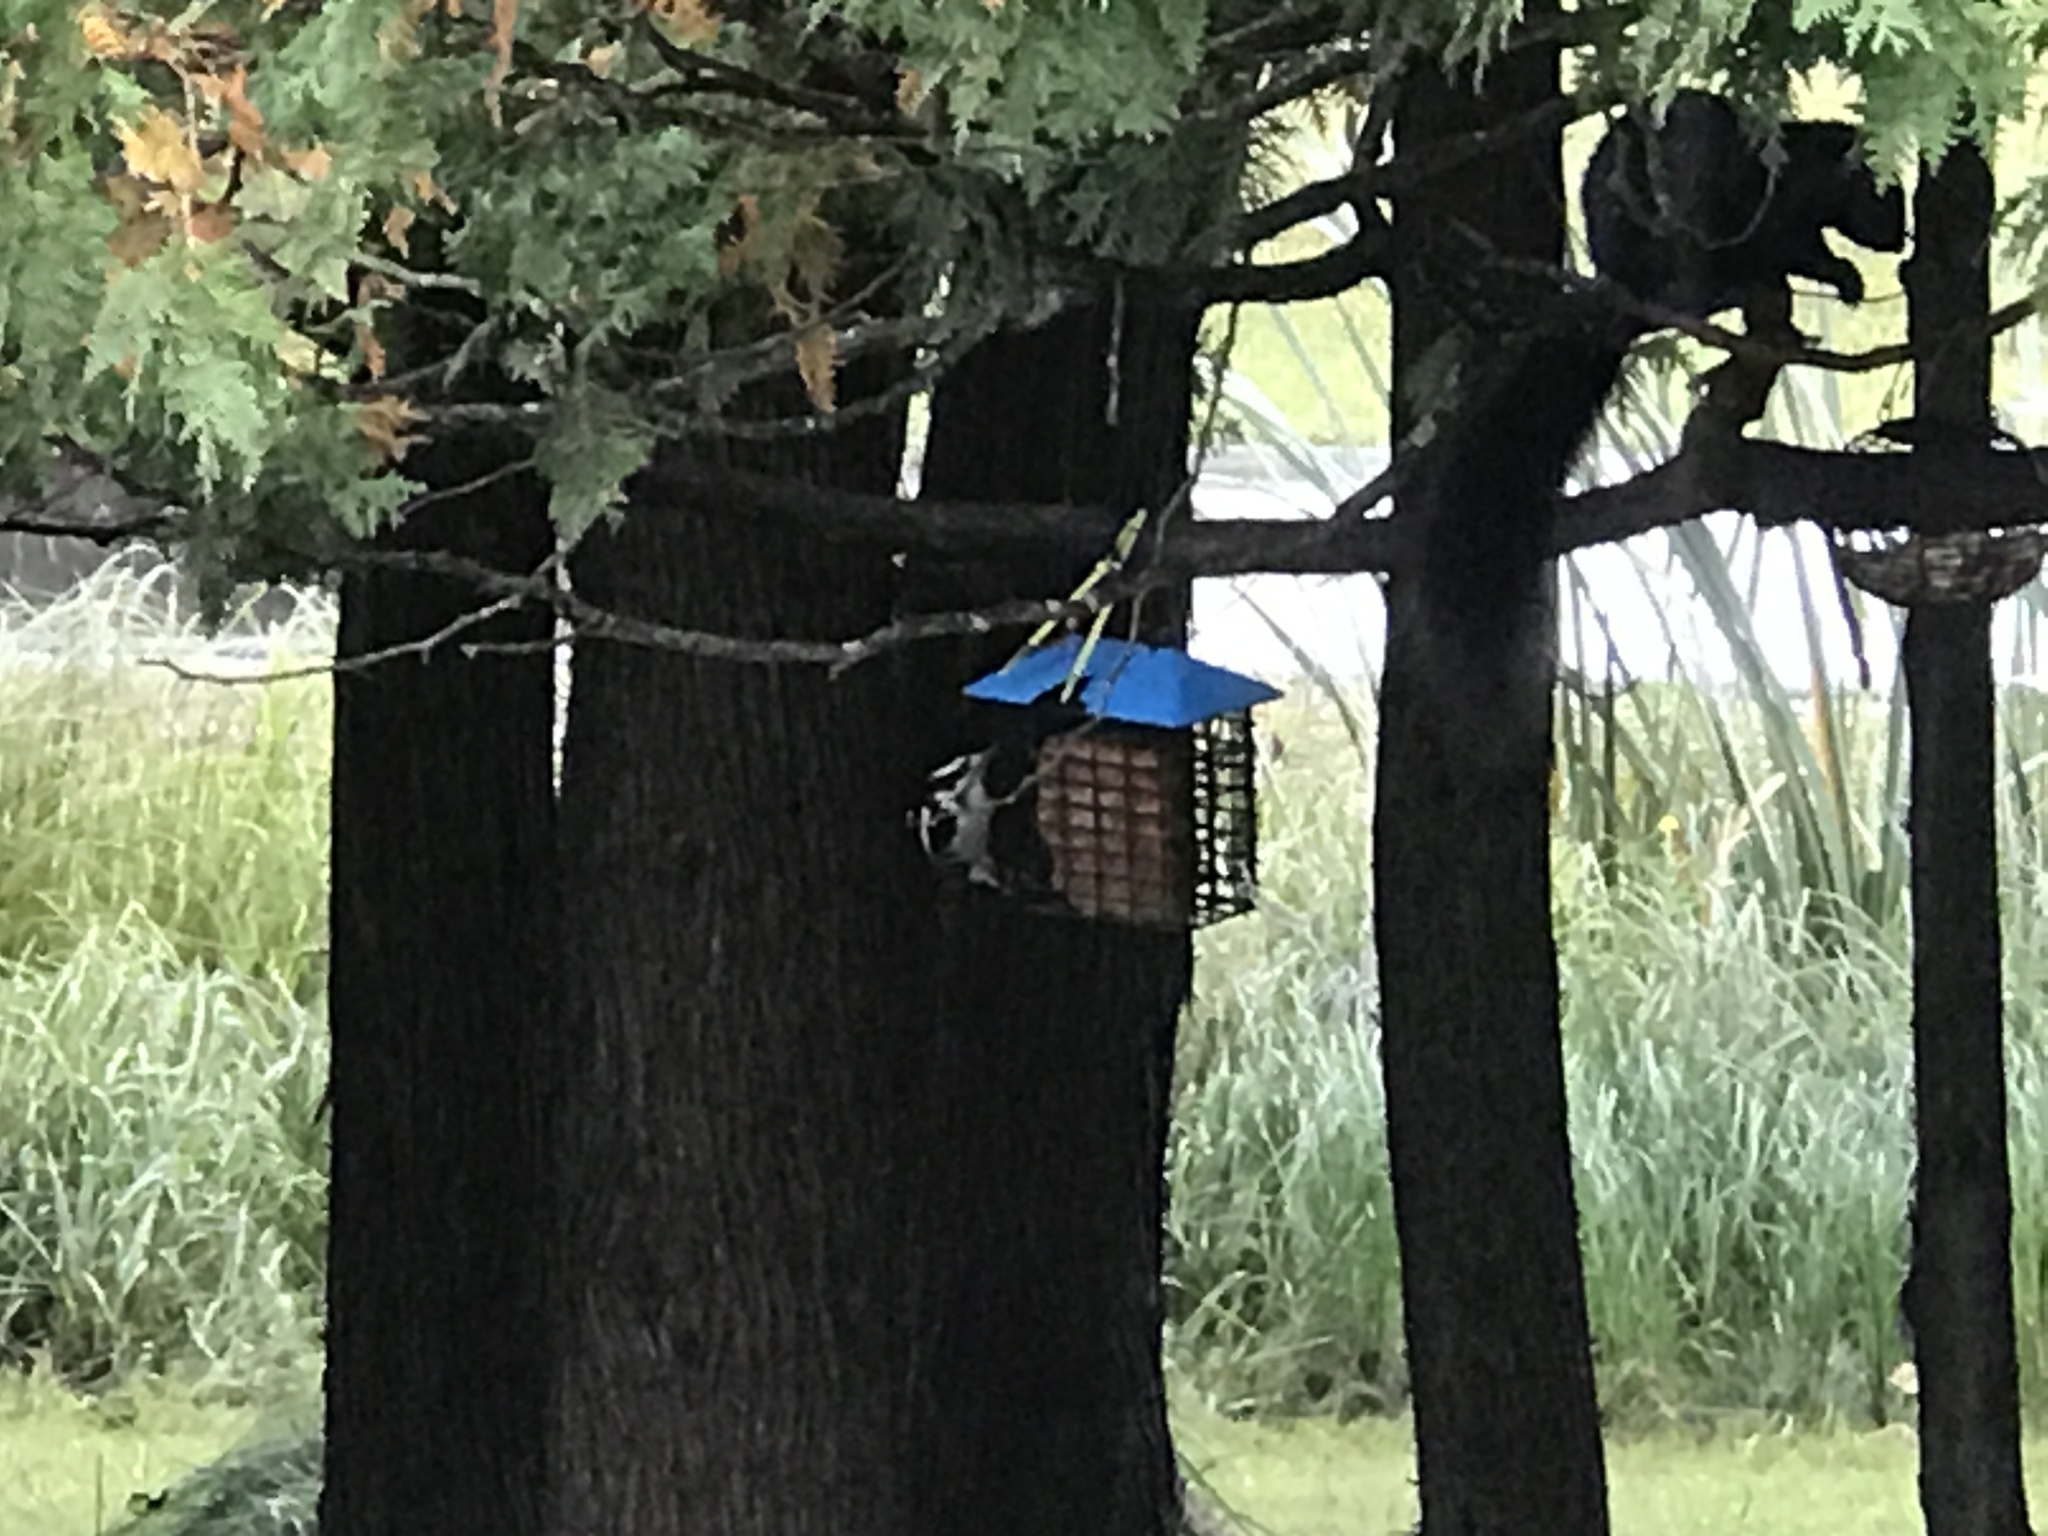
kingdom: Animalia
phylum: Chordata
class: Aves
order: Piciformes
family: Picidae
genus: Dryobates
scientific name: Dryobates pubescens
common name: Downy woodpecker
